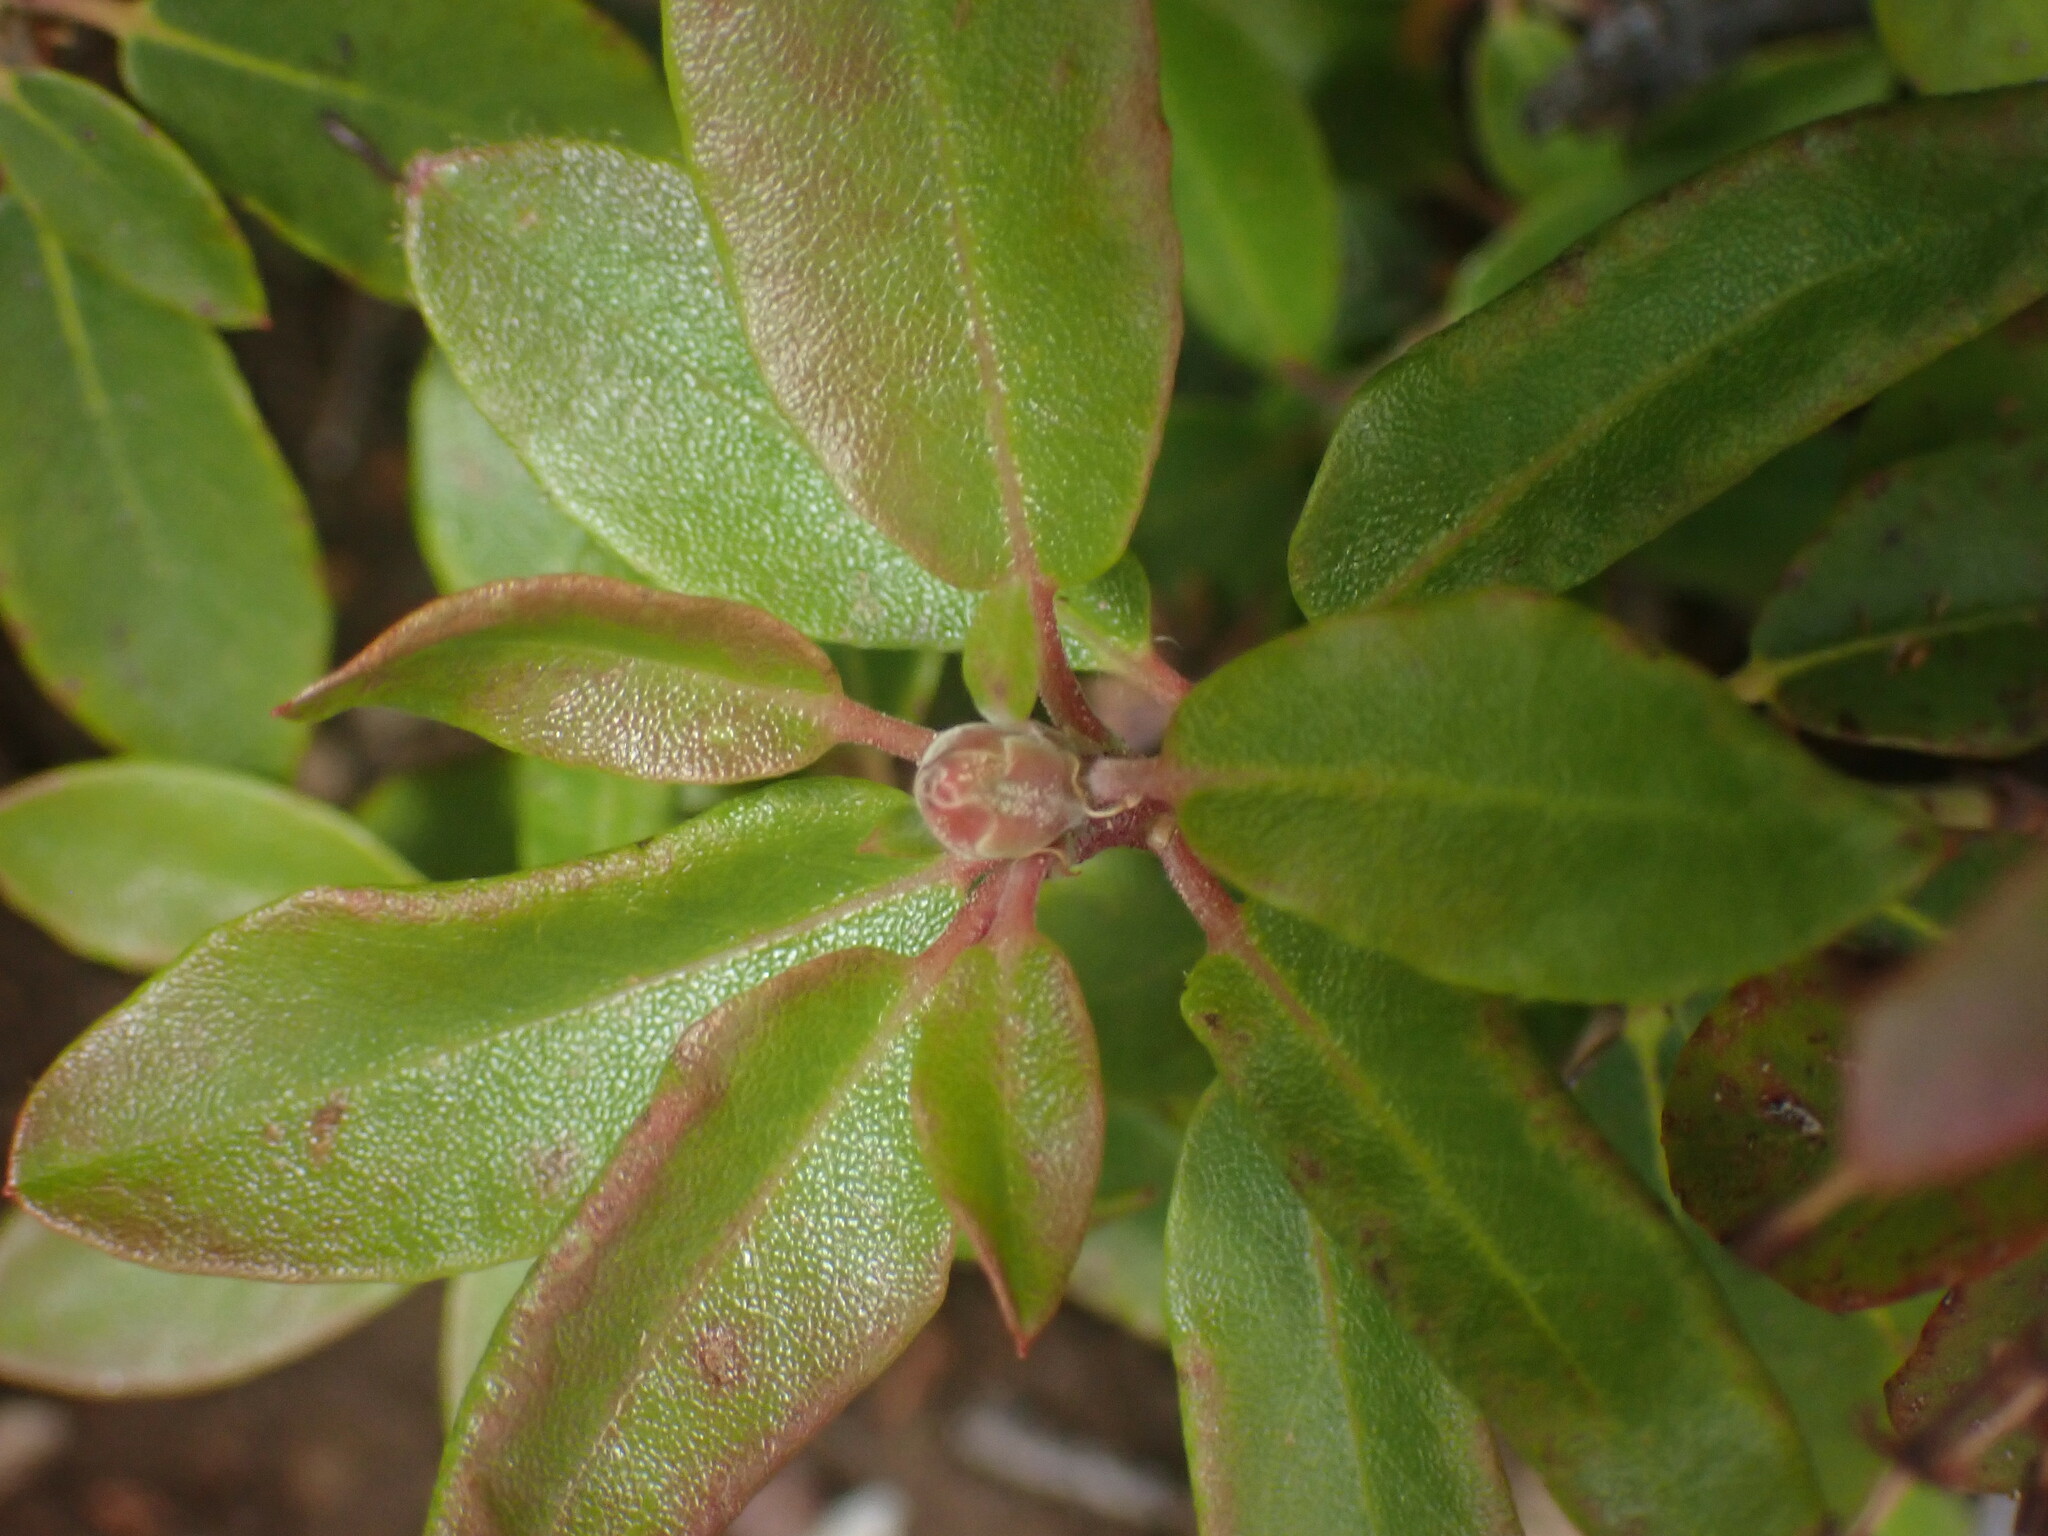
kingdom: Plantae
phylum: Tracheophyta
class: Magnoliopsida
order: Ericales
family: Ericaceae
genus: Rhododendron
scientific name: Rhododendron columbianum
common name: Western labrador tea
